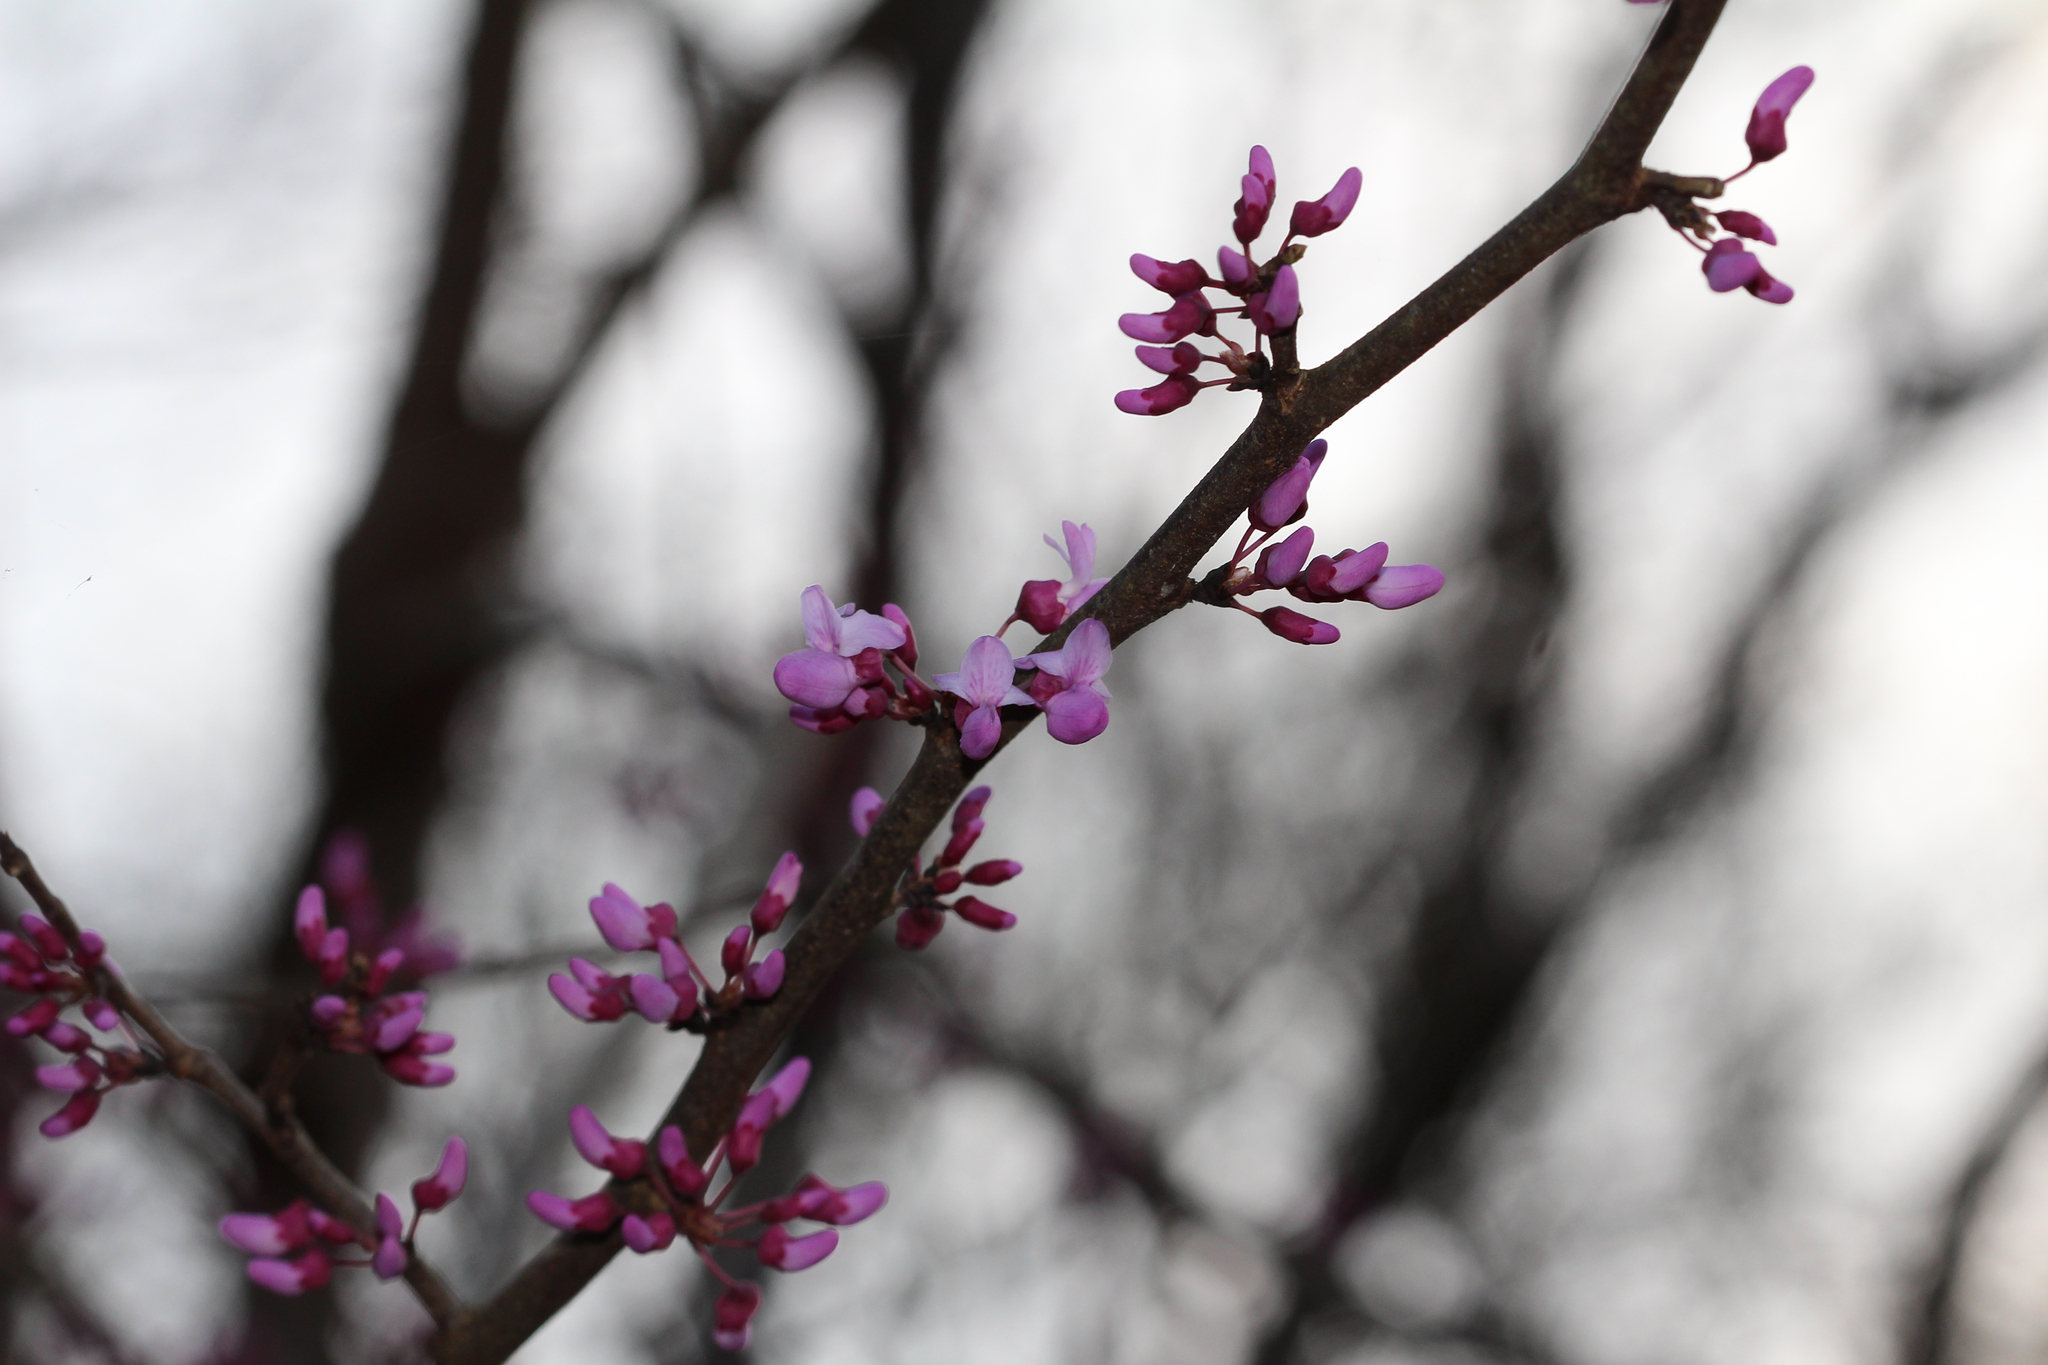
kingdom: Plantae
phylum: Tracheophyta
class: Magnoliopsida
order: Fabales
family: Fabaceae
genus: Cercis
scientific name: Cercis canadensis
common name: Eastern redbud
